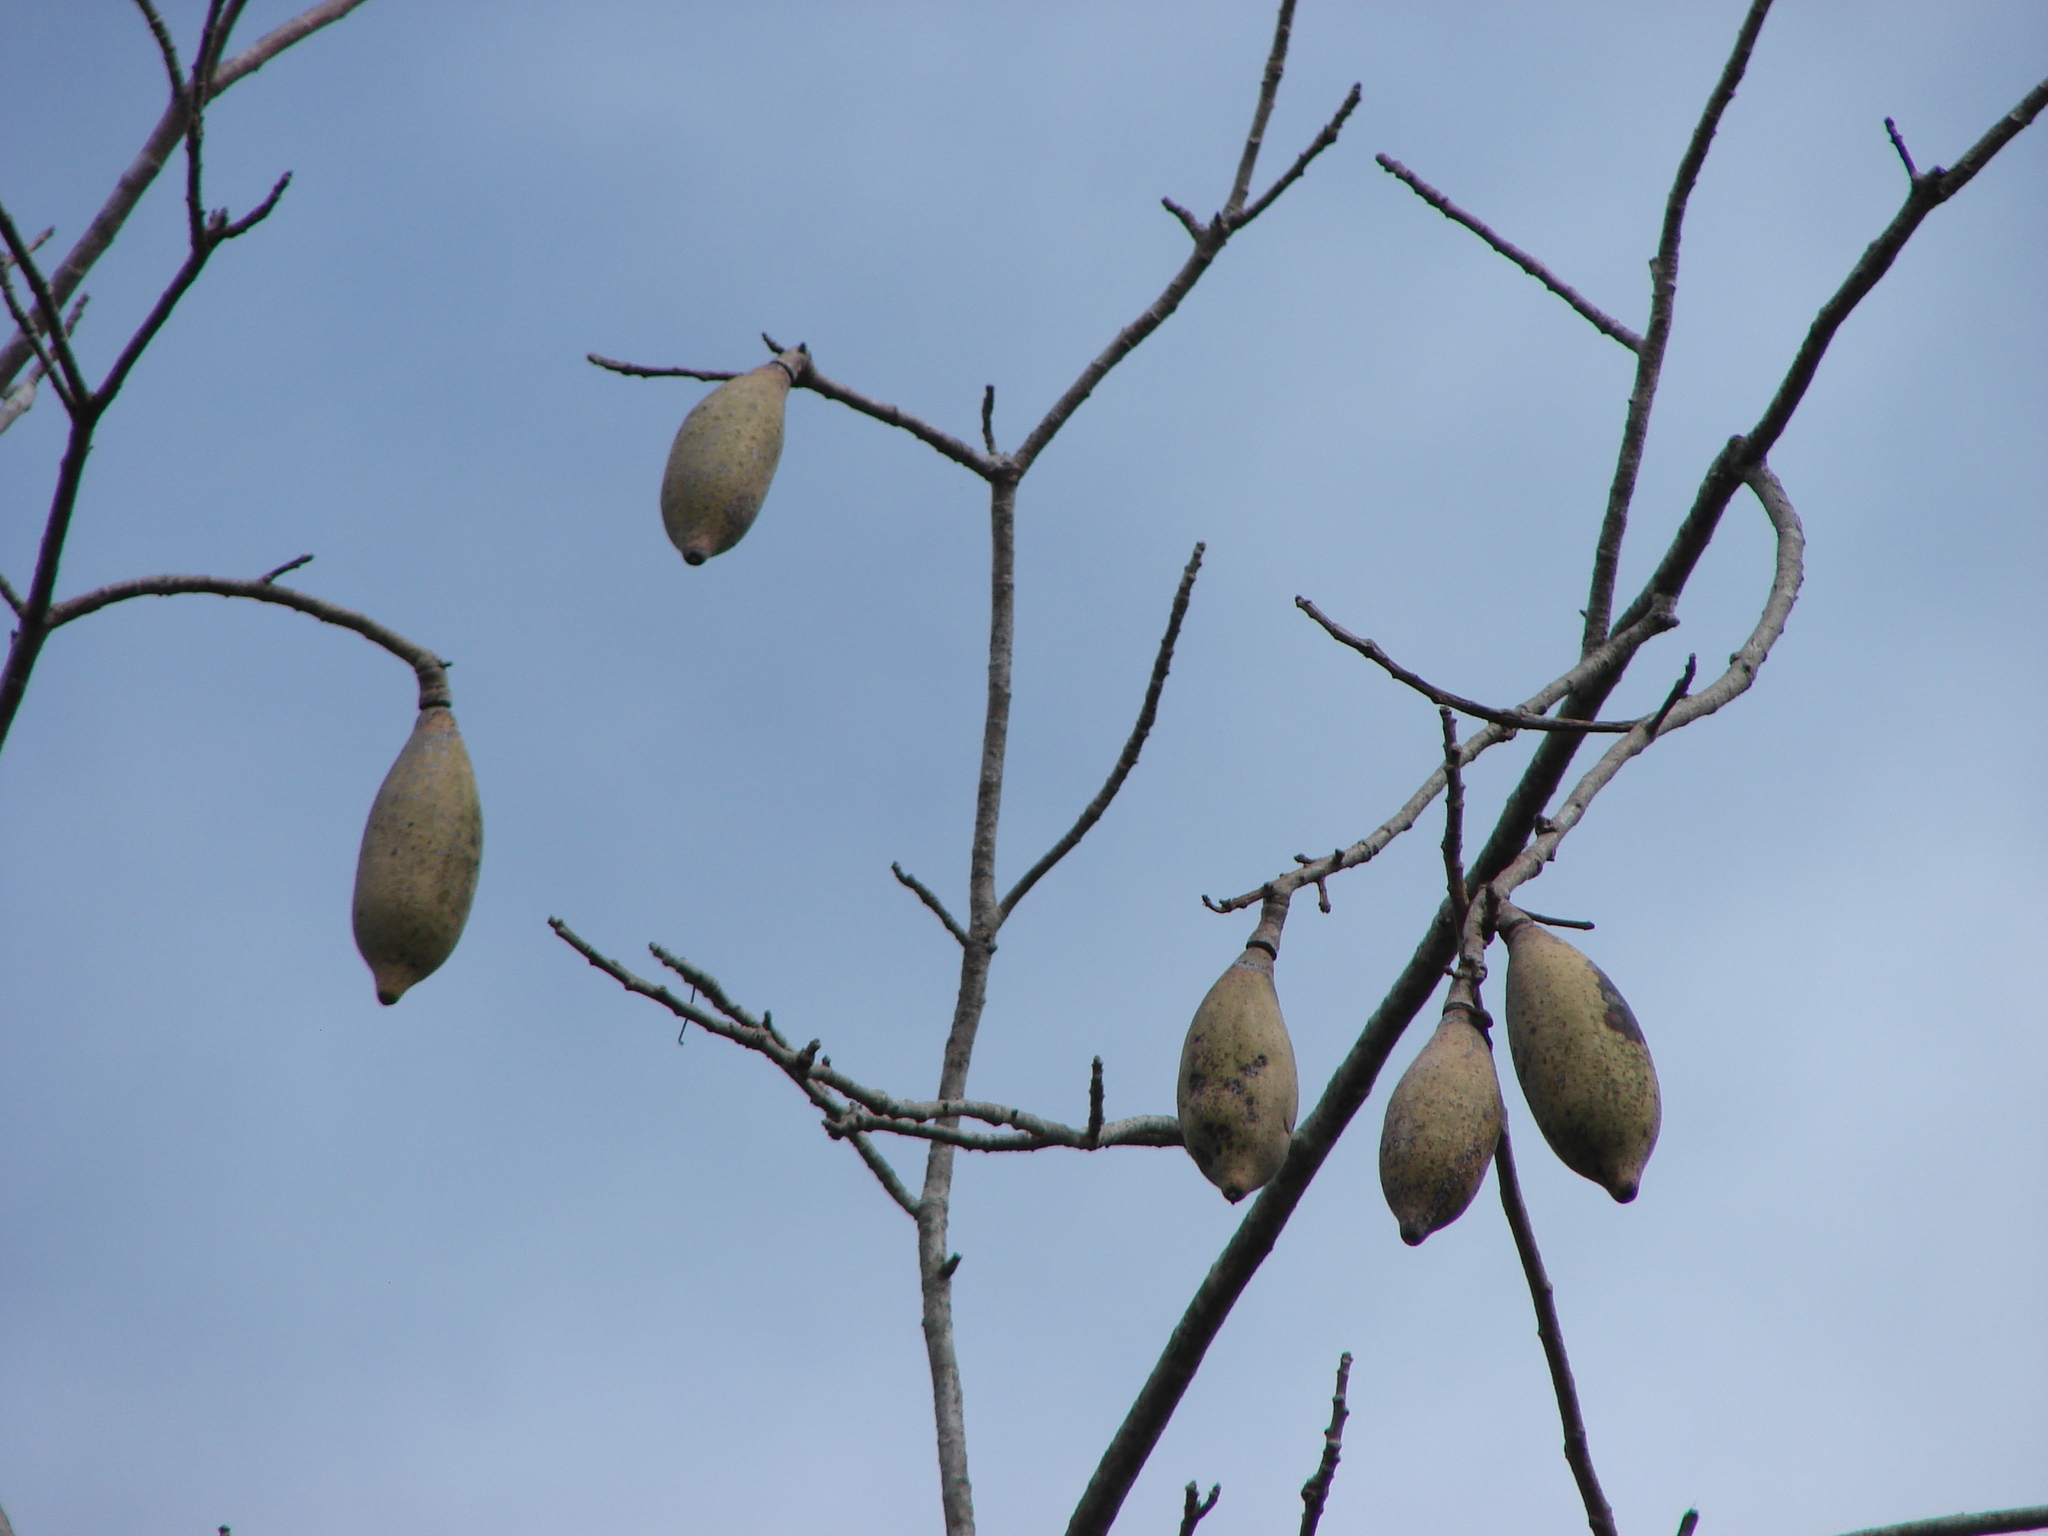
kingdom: Plantae
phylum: Tracheophyta
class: Magnoliopsida
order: Malvales
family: Malvaceae
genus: Ceiba
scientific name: Ceiba aesculifolia
